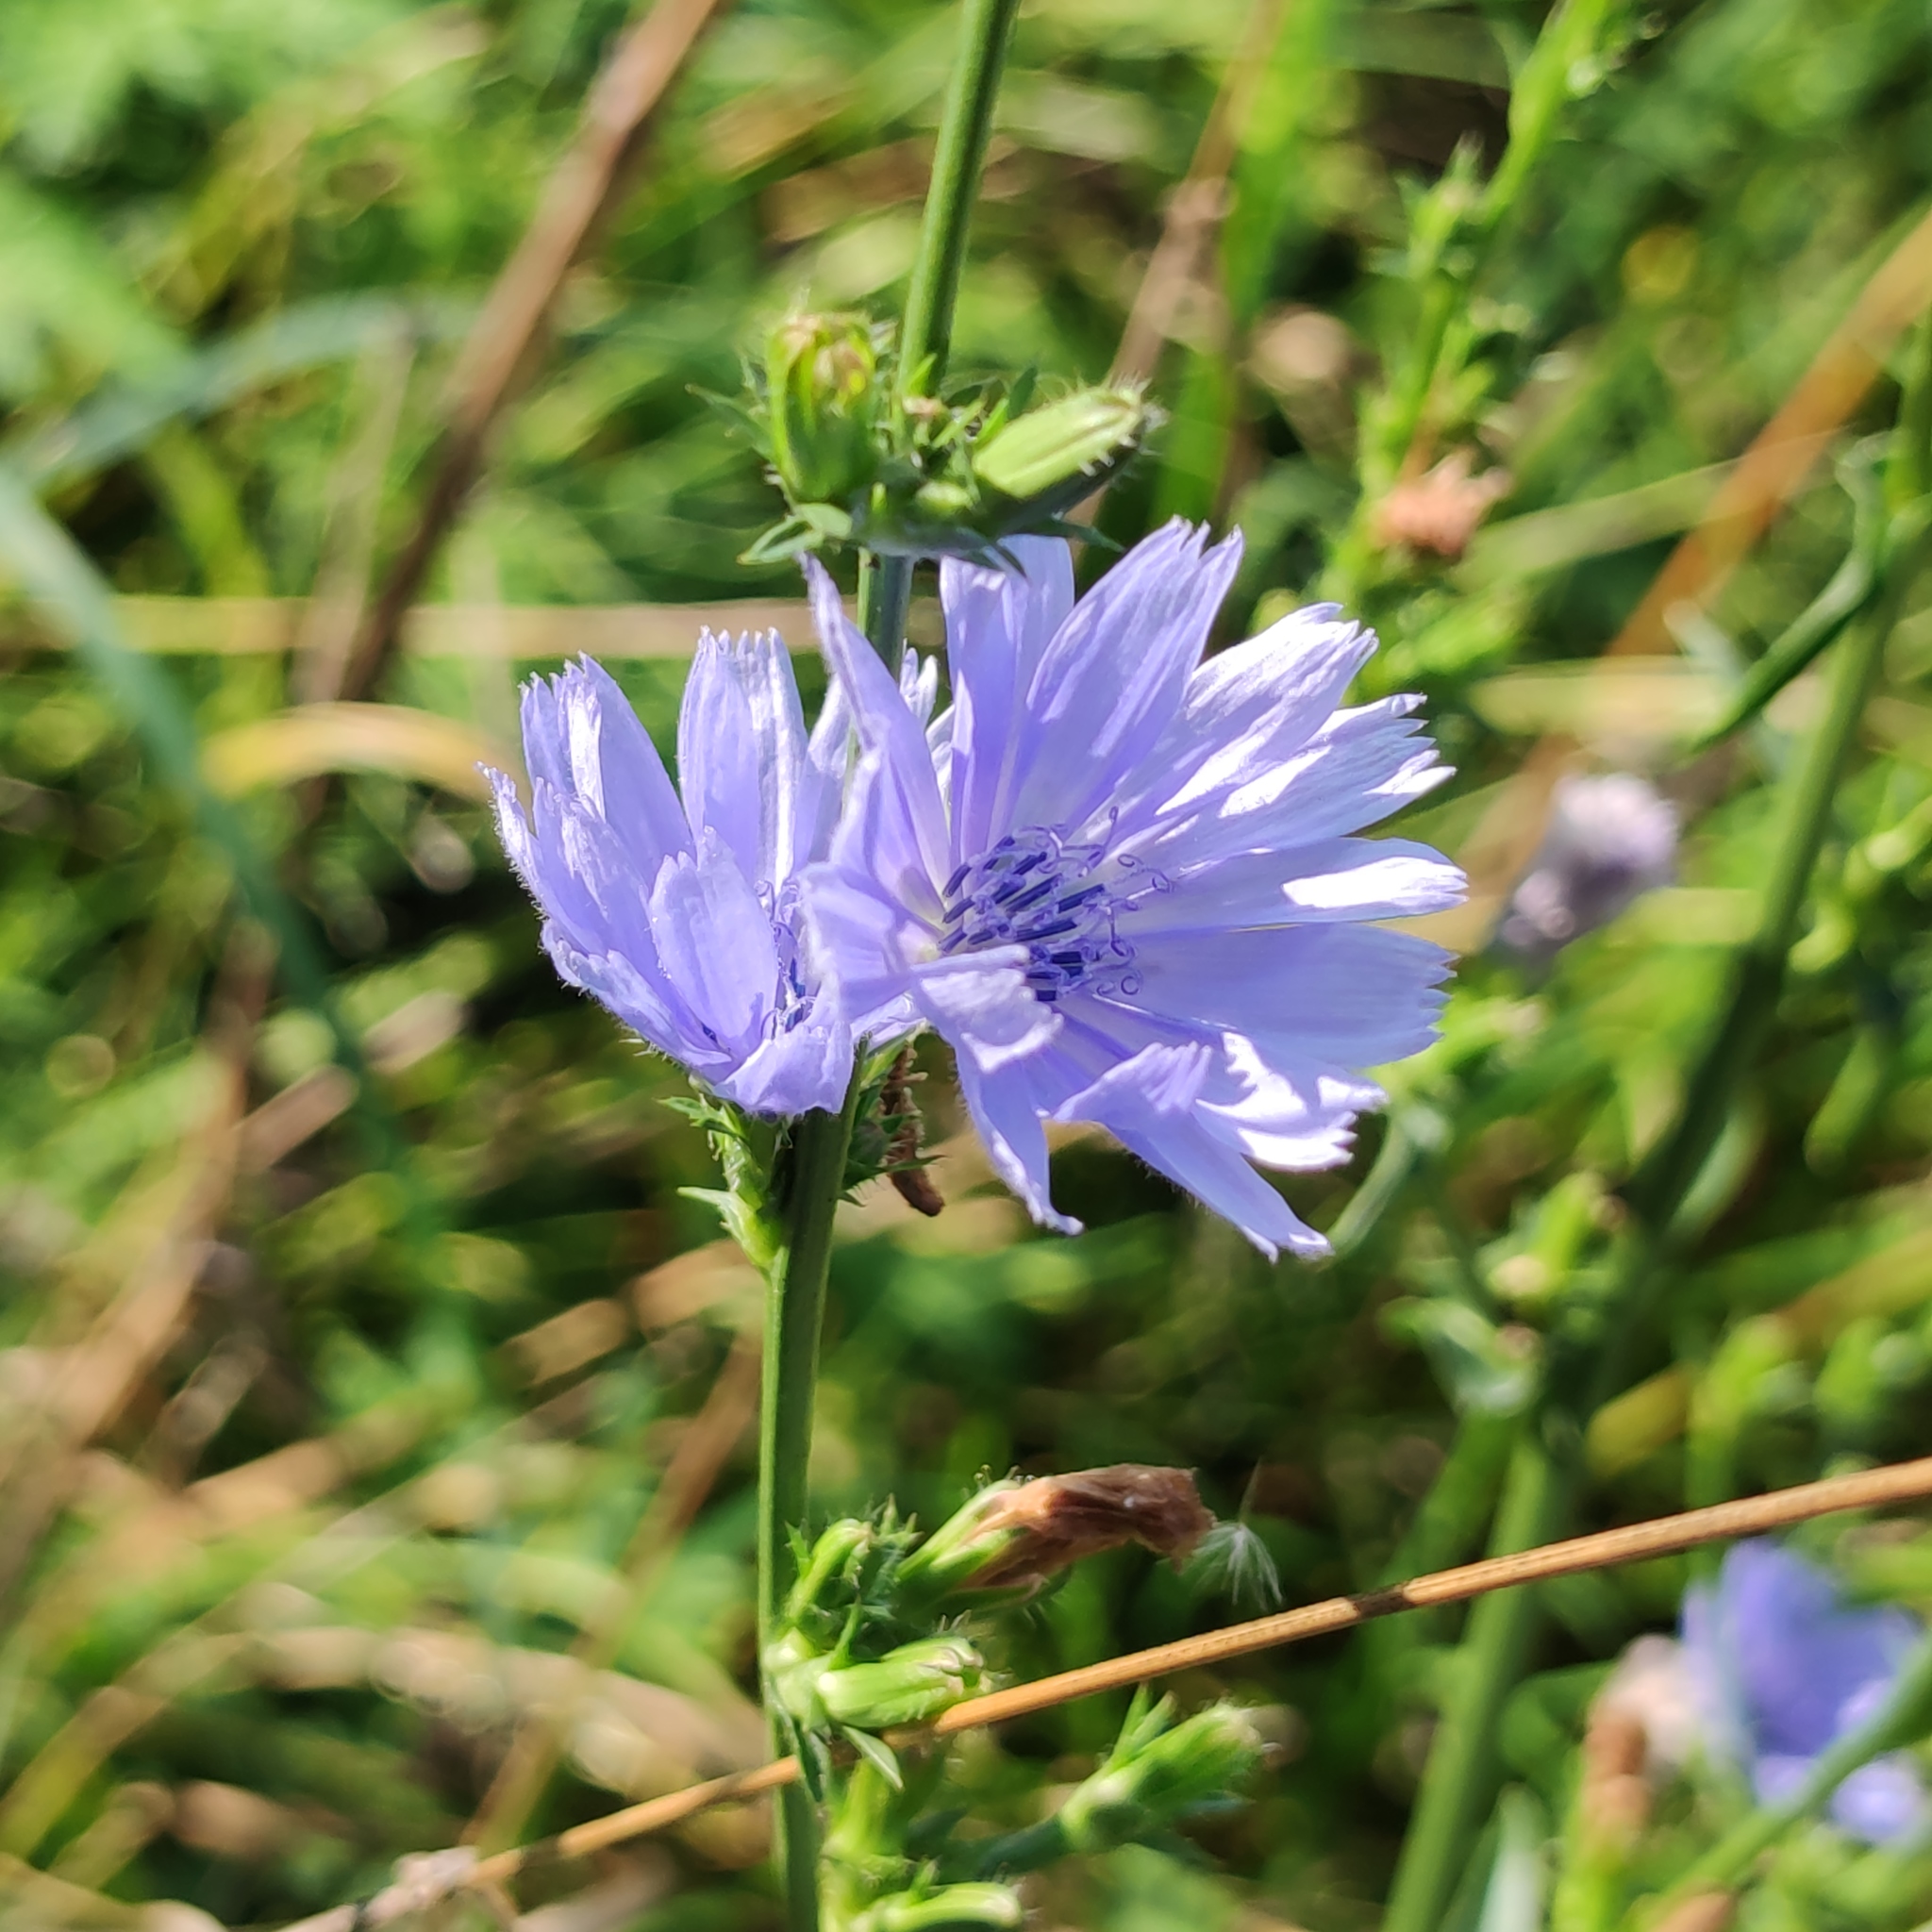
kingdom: Plantae
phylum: Tracheophyta
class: Magnoliopsida
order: Asterales
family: Asteraceae
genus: Cichorium
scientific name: Cichorium intybus
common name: Chicory
